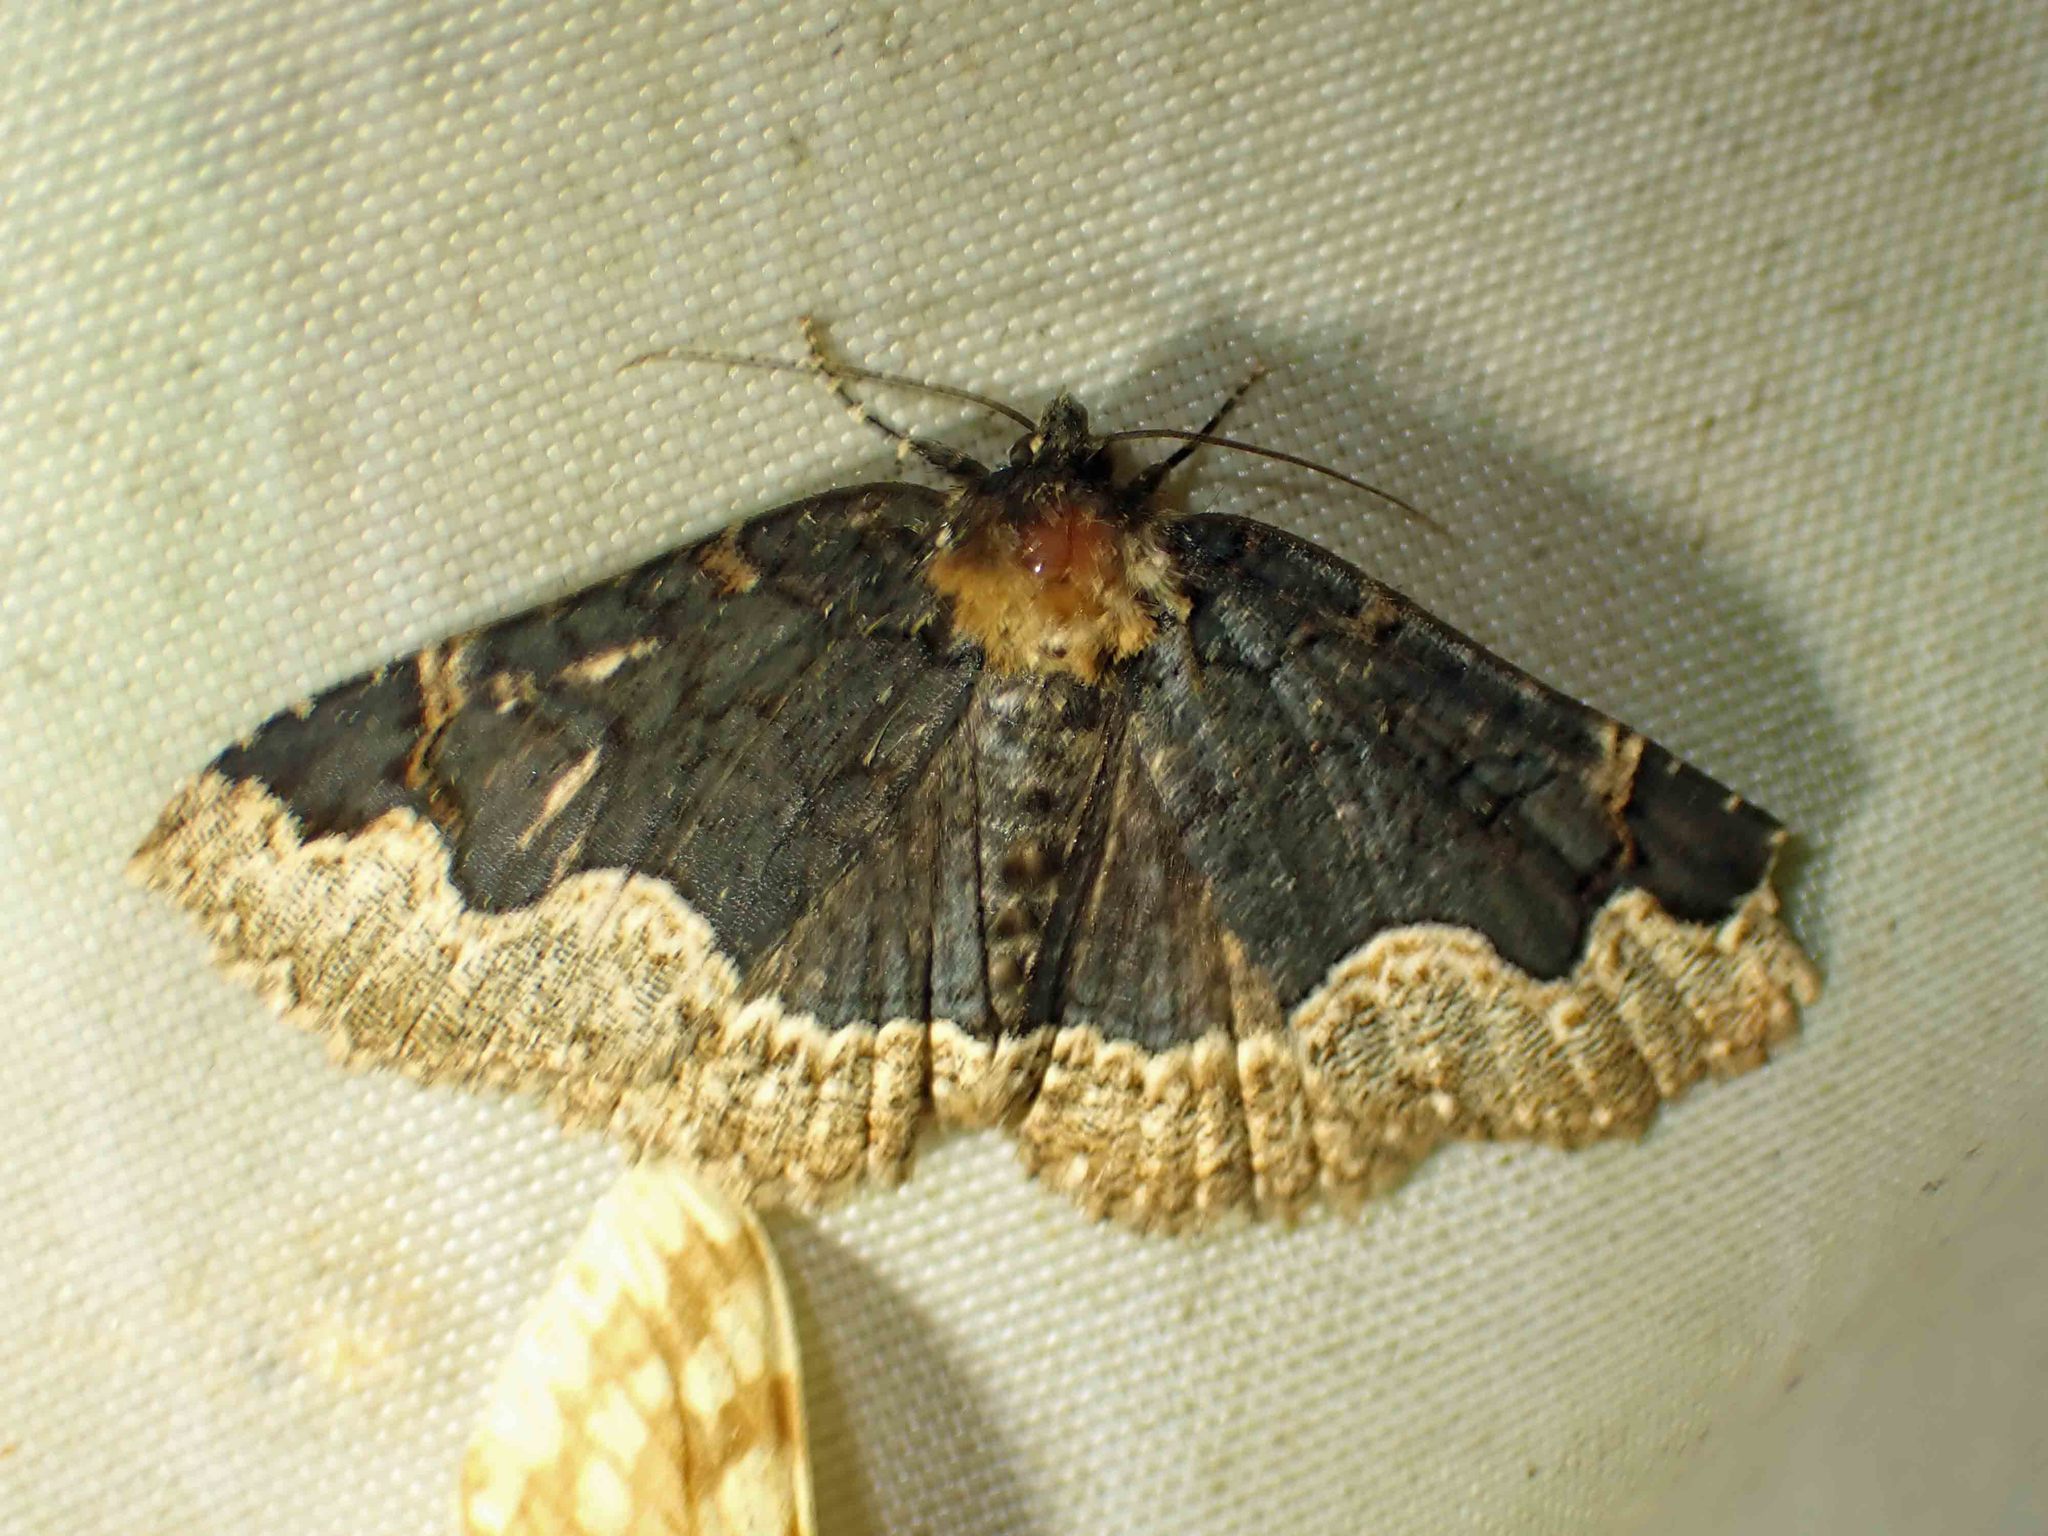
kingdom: Animalia
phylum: Arthropoda
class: Insecta
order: Lepidoptera
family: Erebidae
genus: Zale
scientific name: Zale horrida
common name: Horrid zale moth
